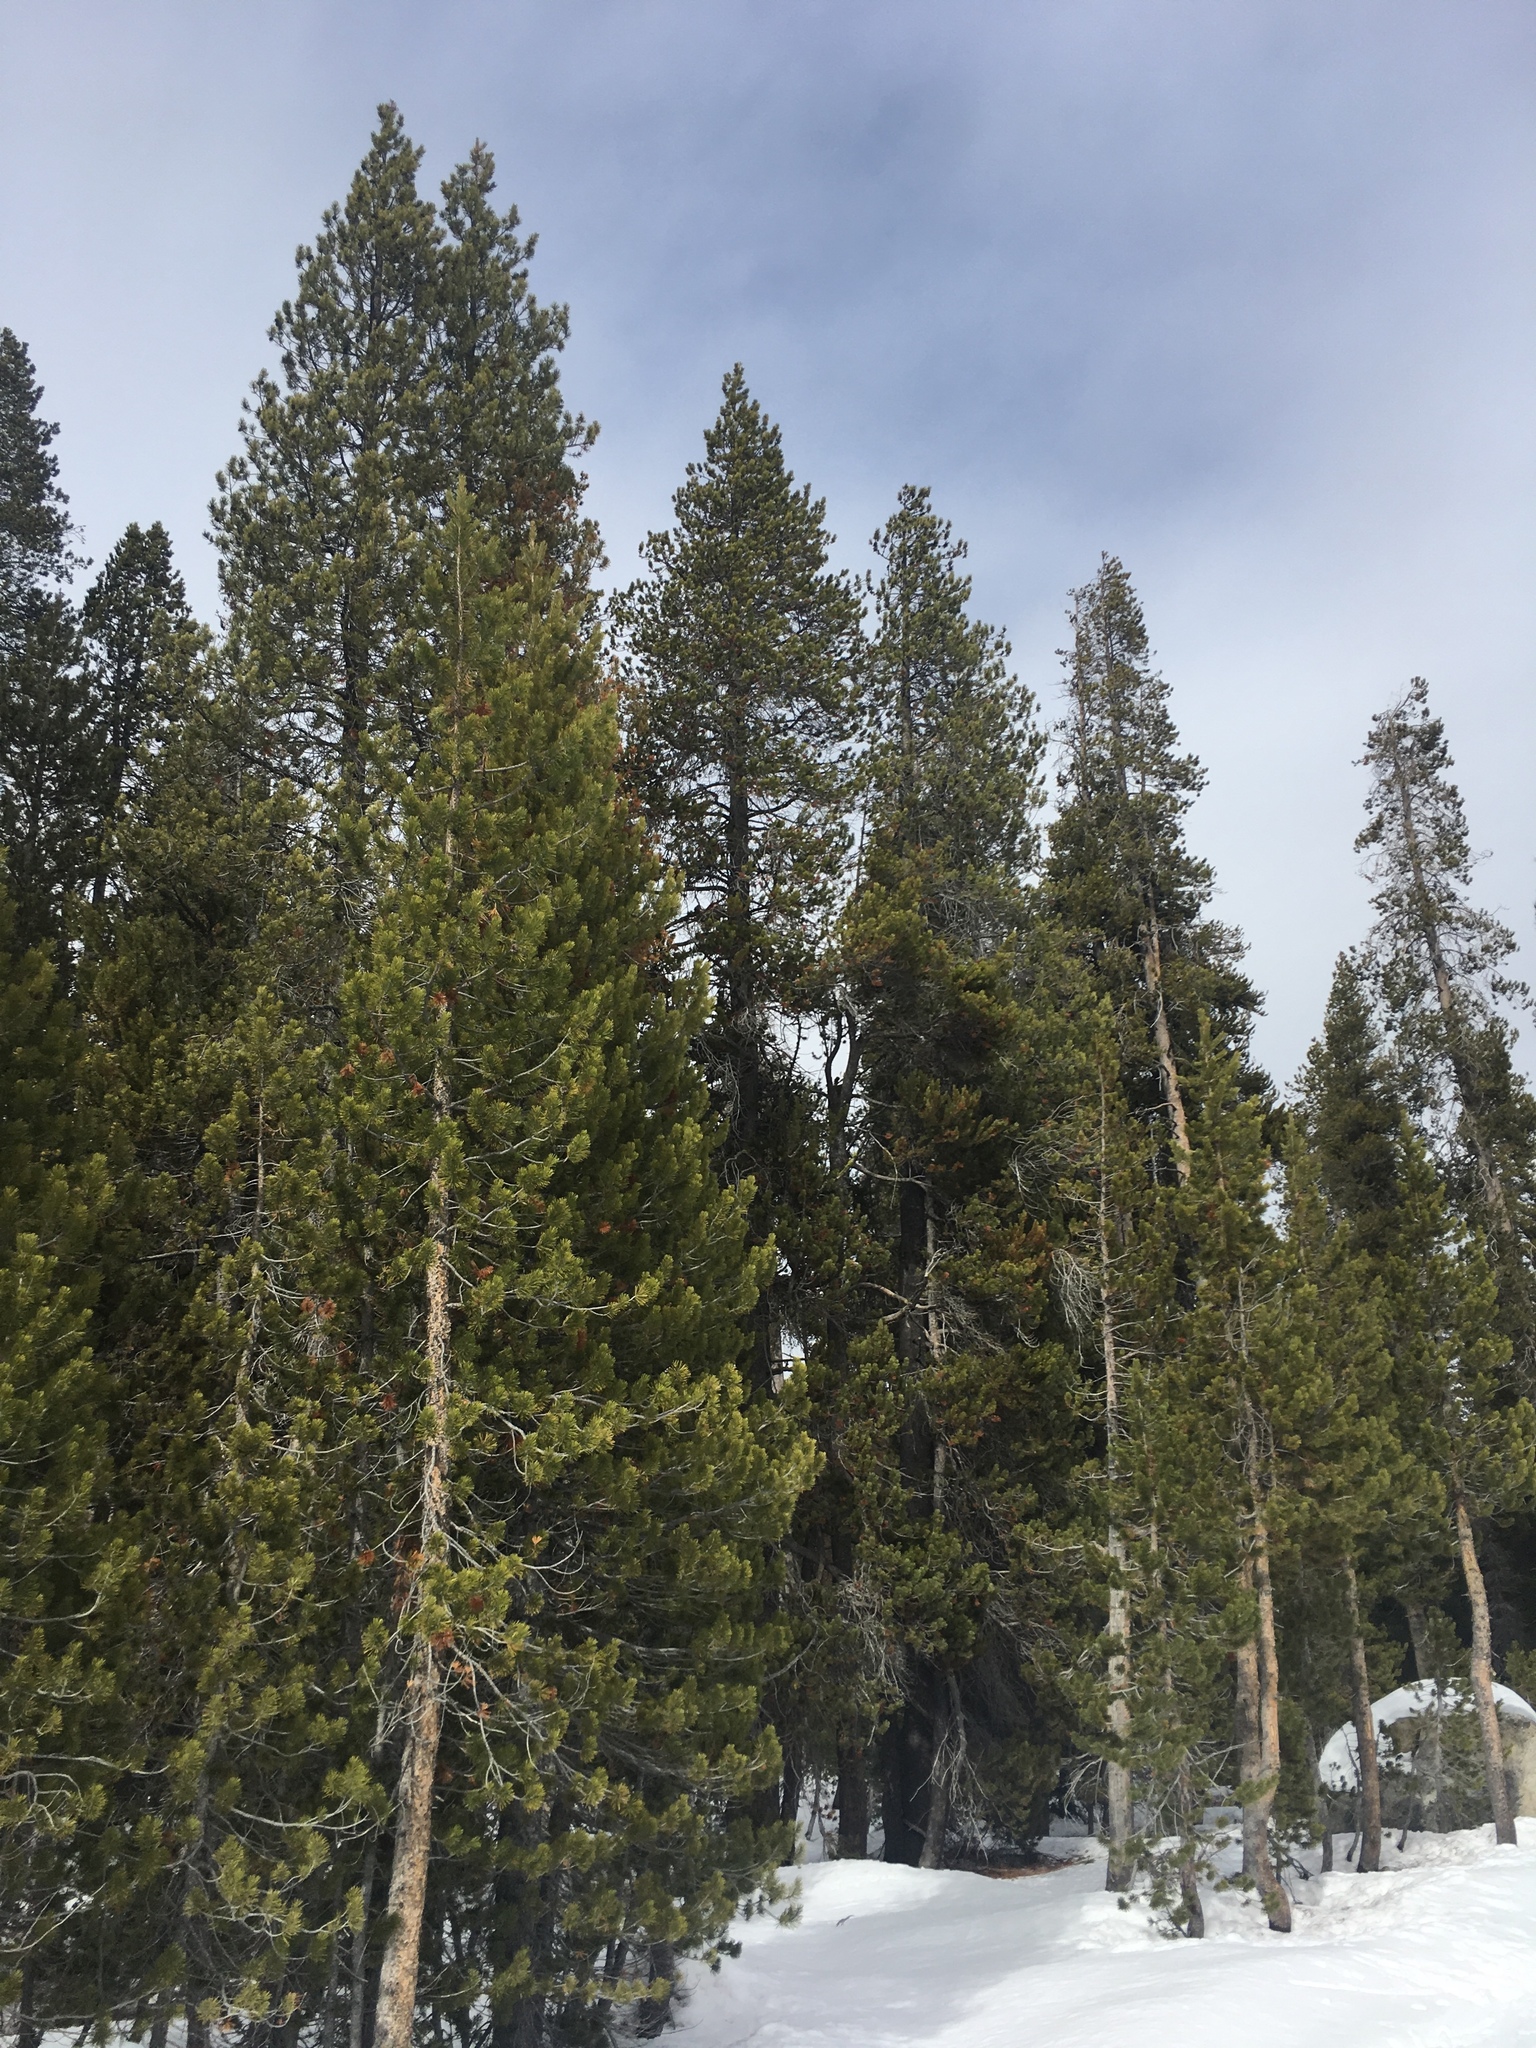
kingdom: Plantae
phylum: Tracheophyta
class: Pinopsida
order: Pinales
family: Pinaceae
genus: Pinus
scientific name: Pinus contorta
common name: Lodgepole pine
